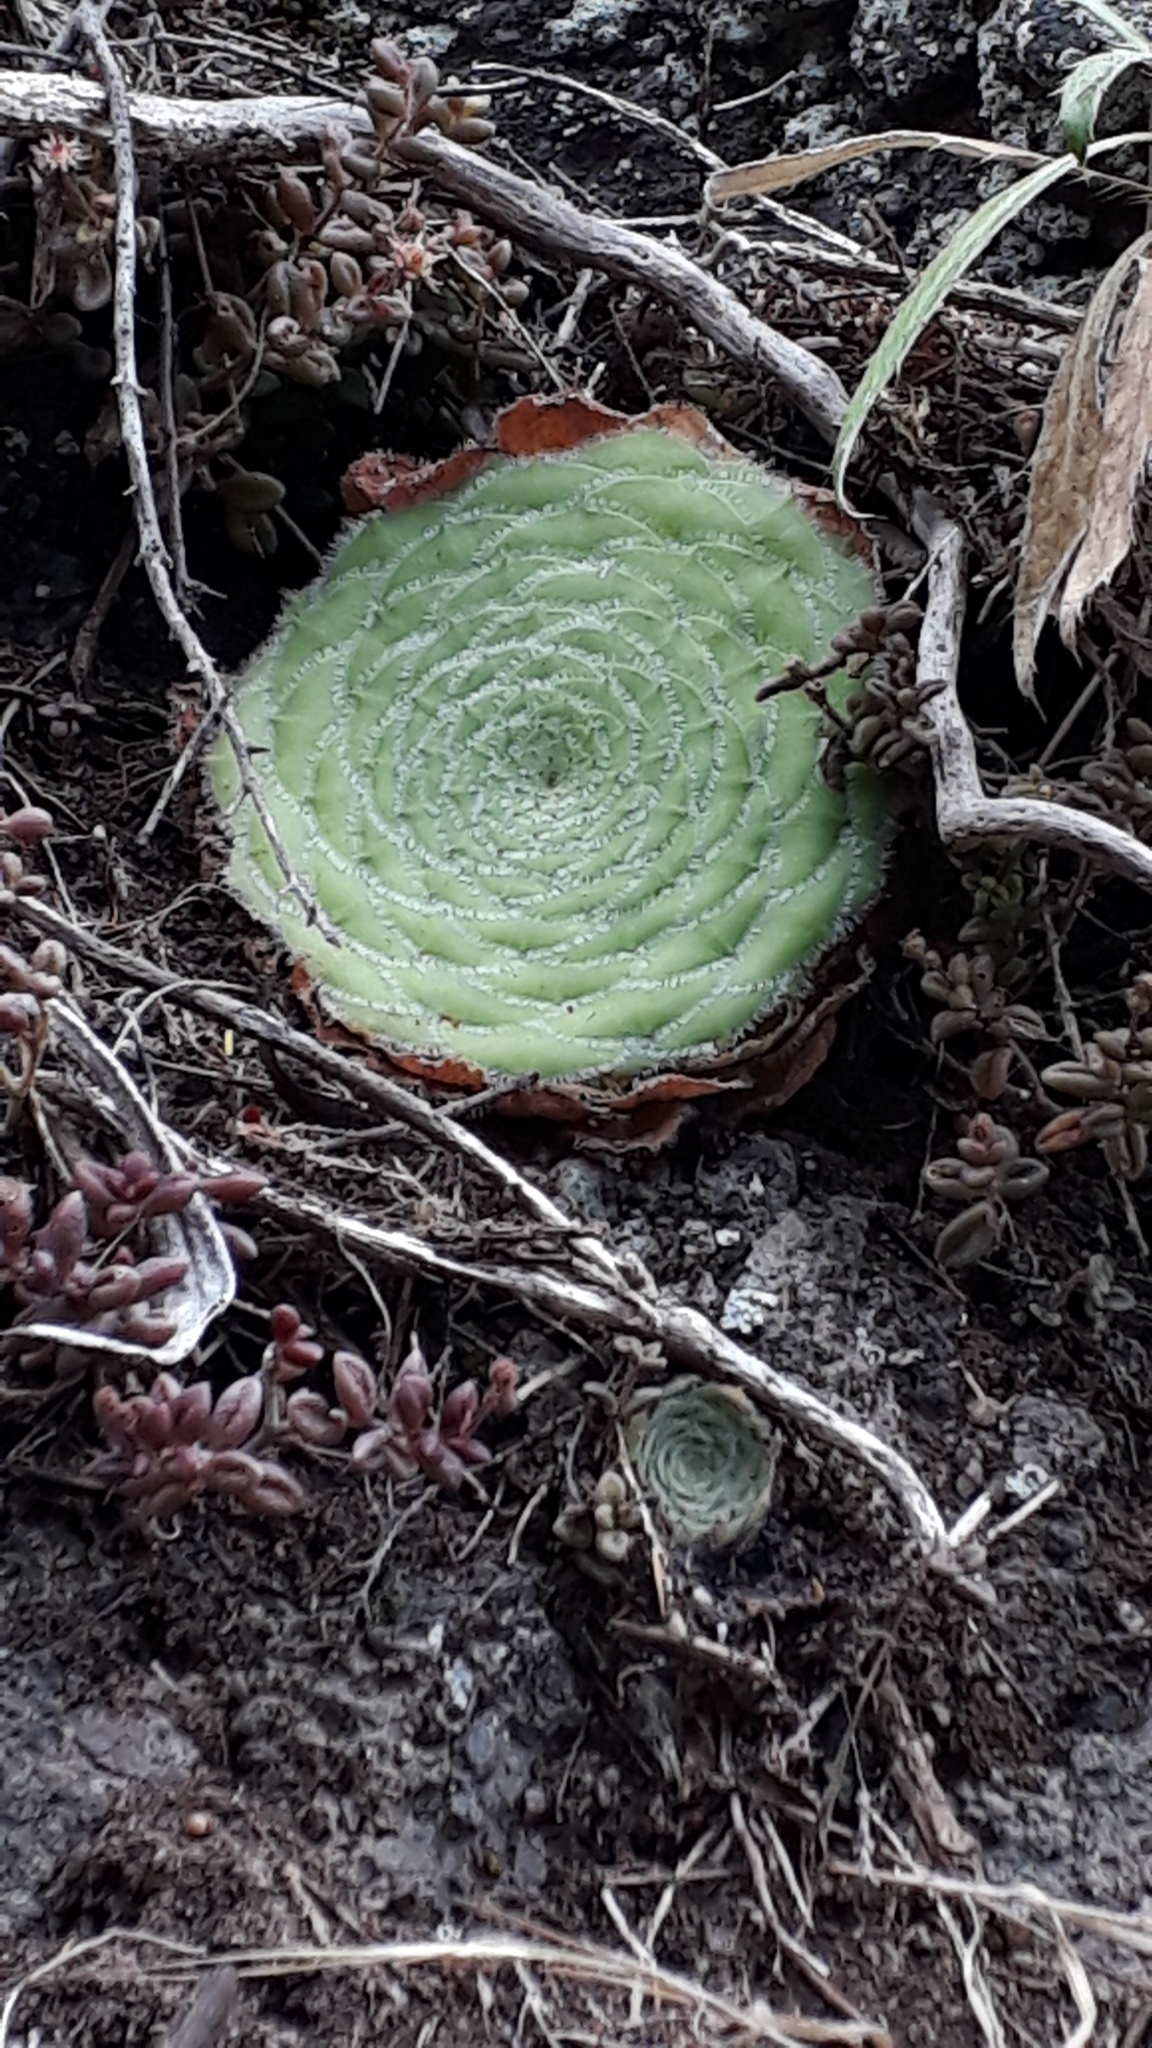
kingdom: Plantae
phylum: Tracheophyta
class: Magnoliopsida
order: Saxifragales
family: Crassulaceae
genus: Aeonium
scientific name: Aeonium tabulaeforme
